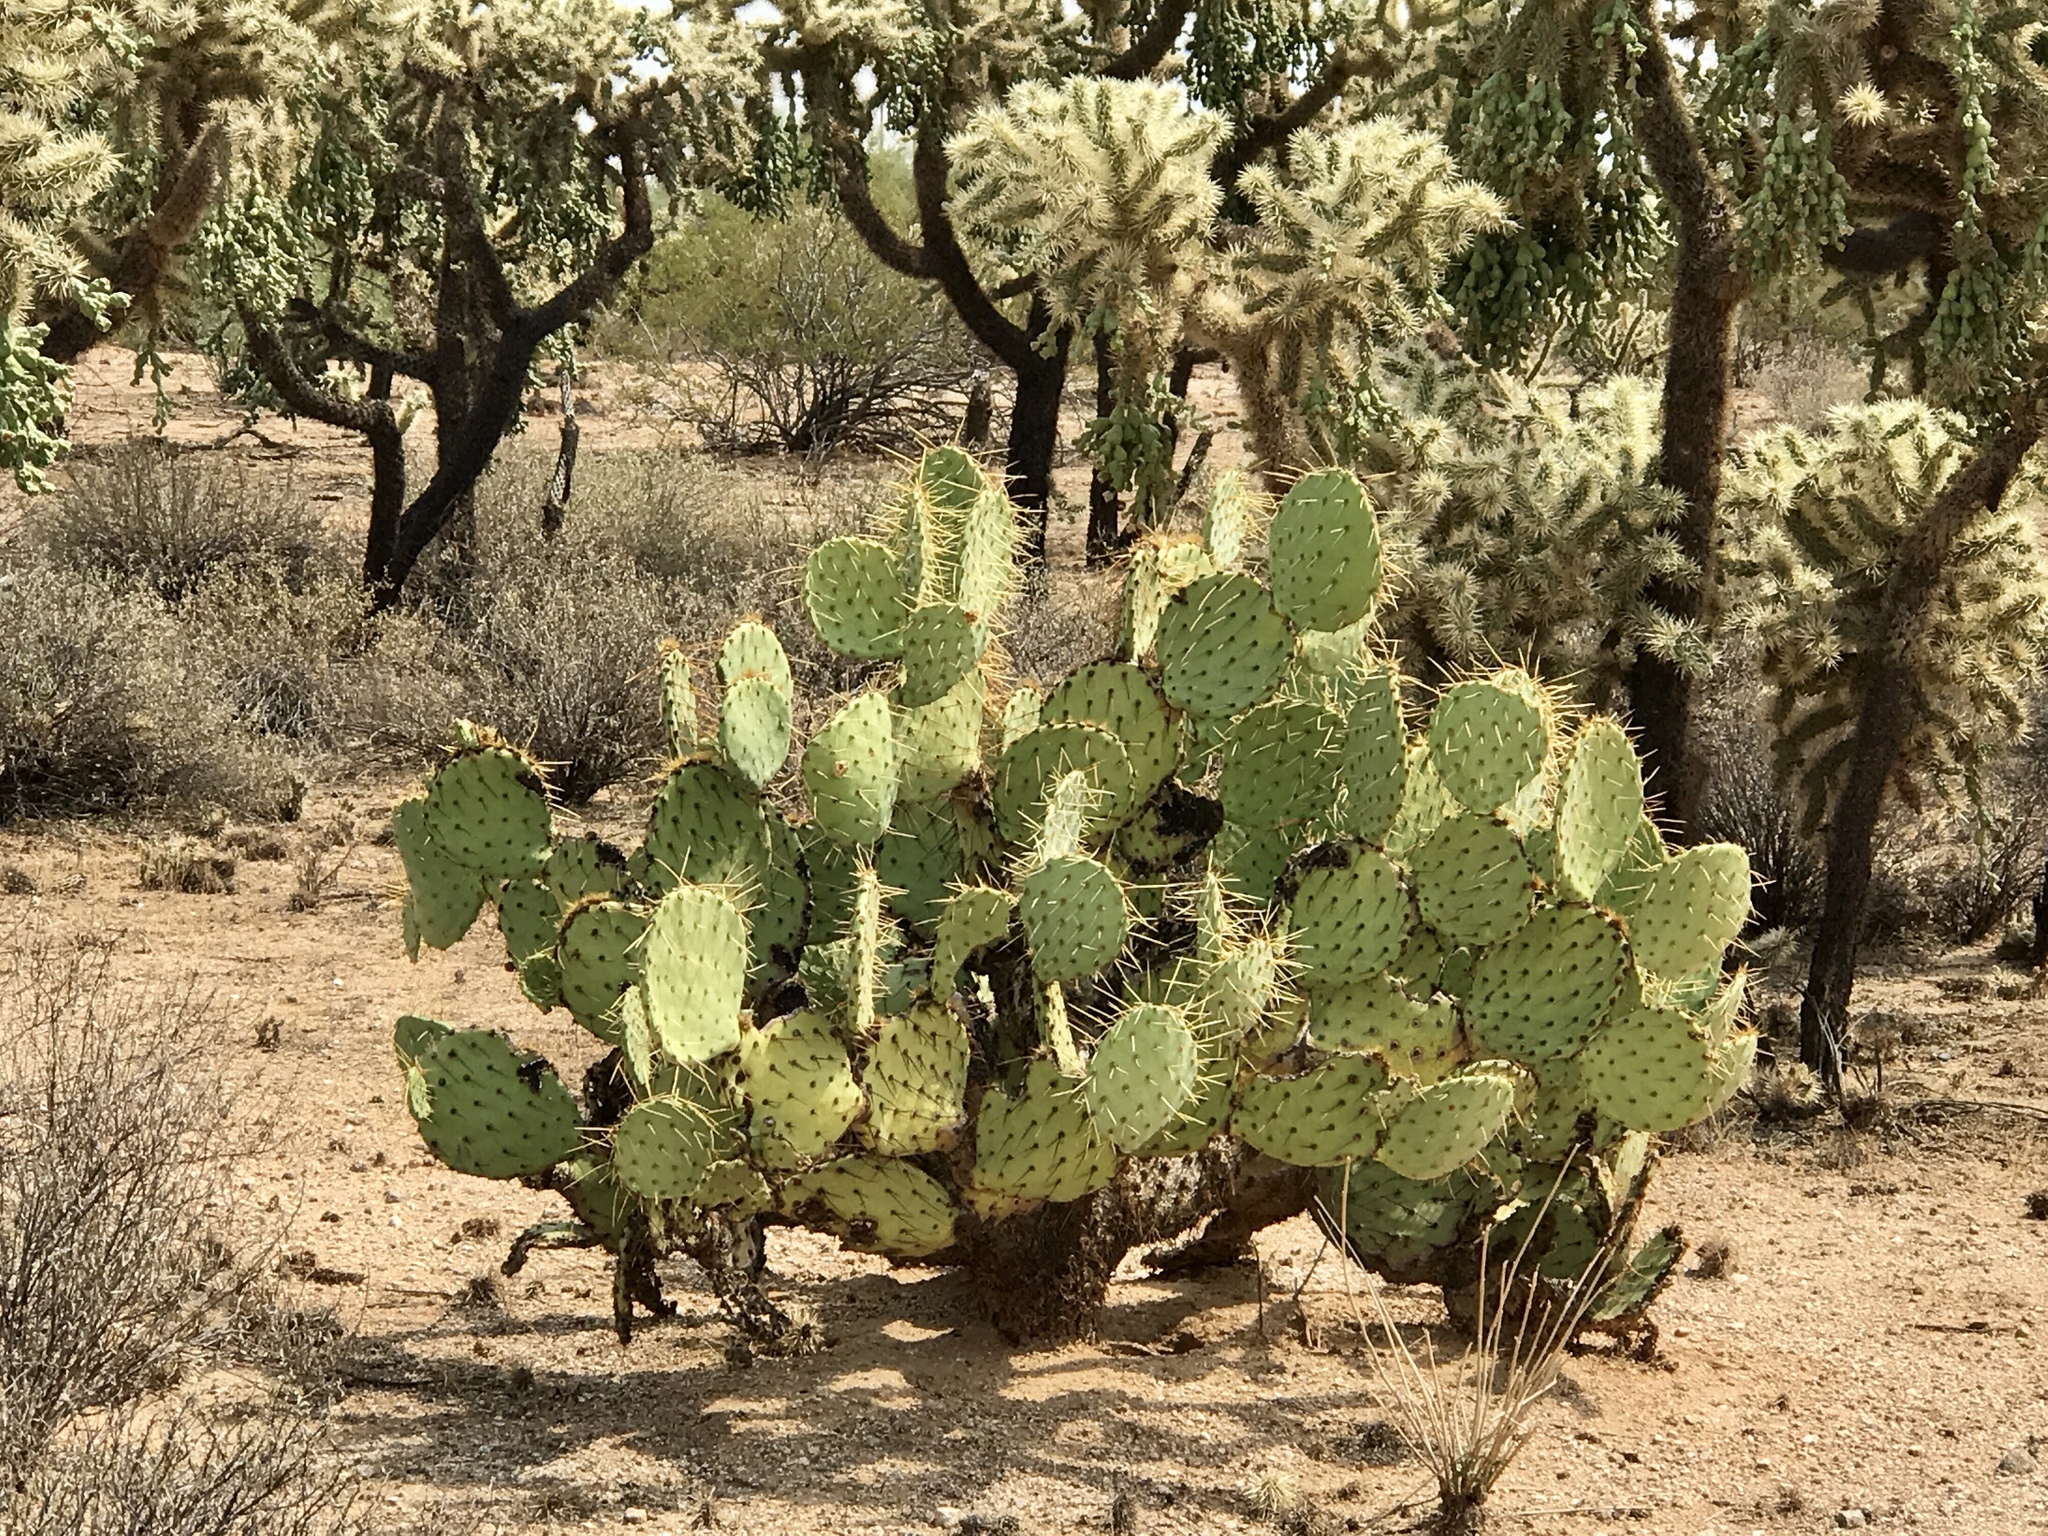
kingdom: Plantae
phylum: Tracheophyta
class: Magnoliopsida
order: Caryophyllales
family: Cactaceae
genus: Opuntia
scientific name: Opuntia engelmannii
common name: Cactus-apple
